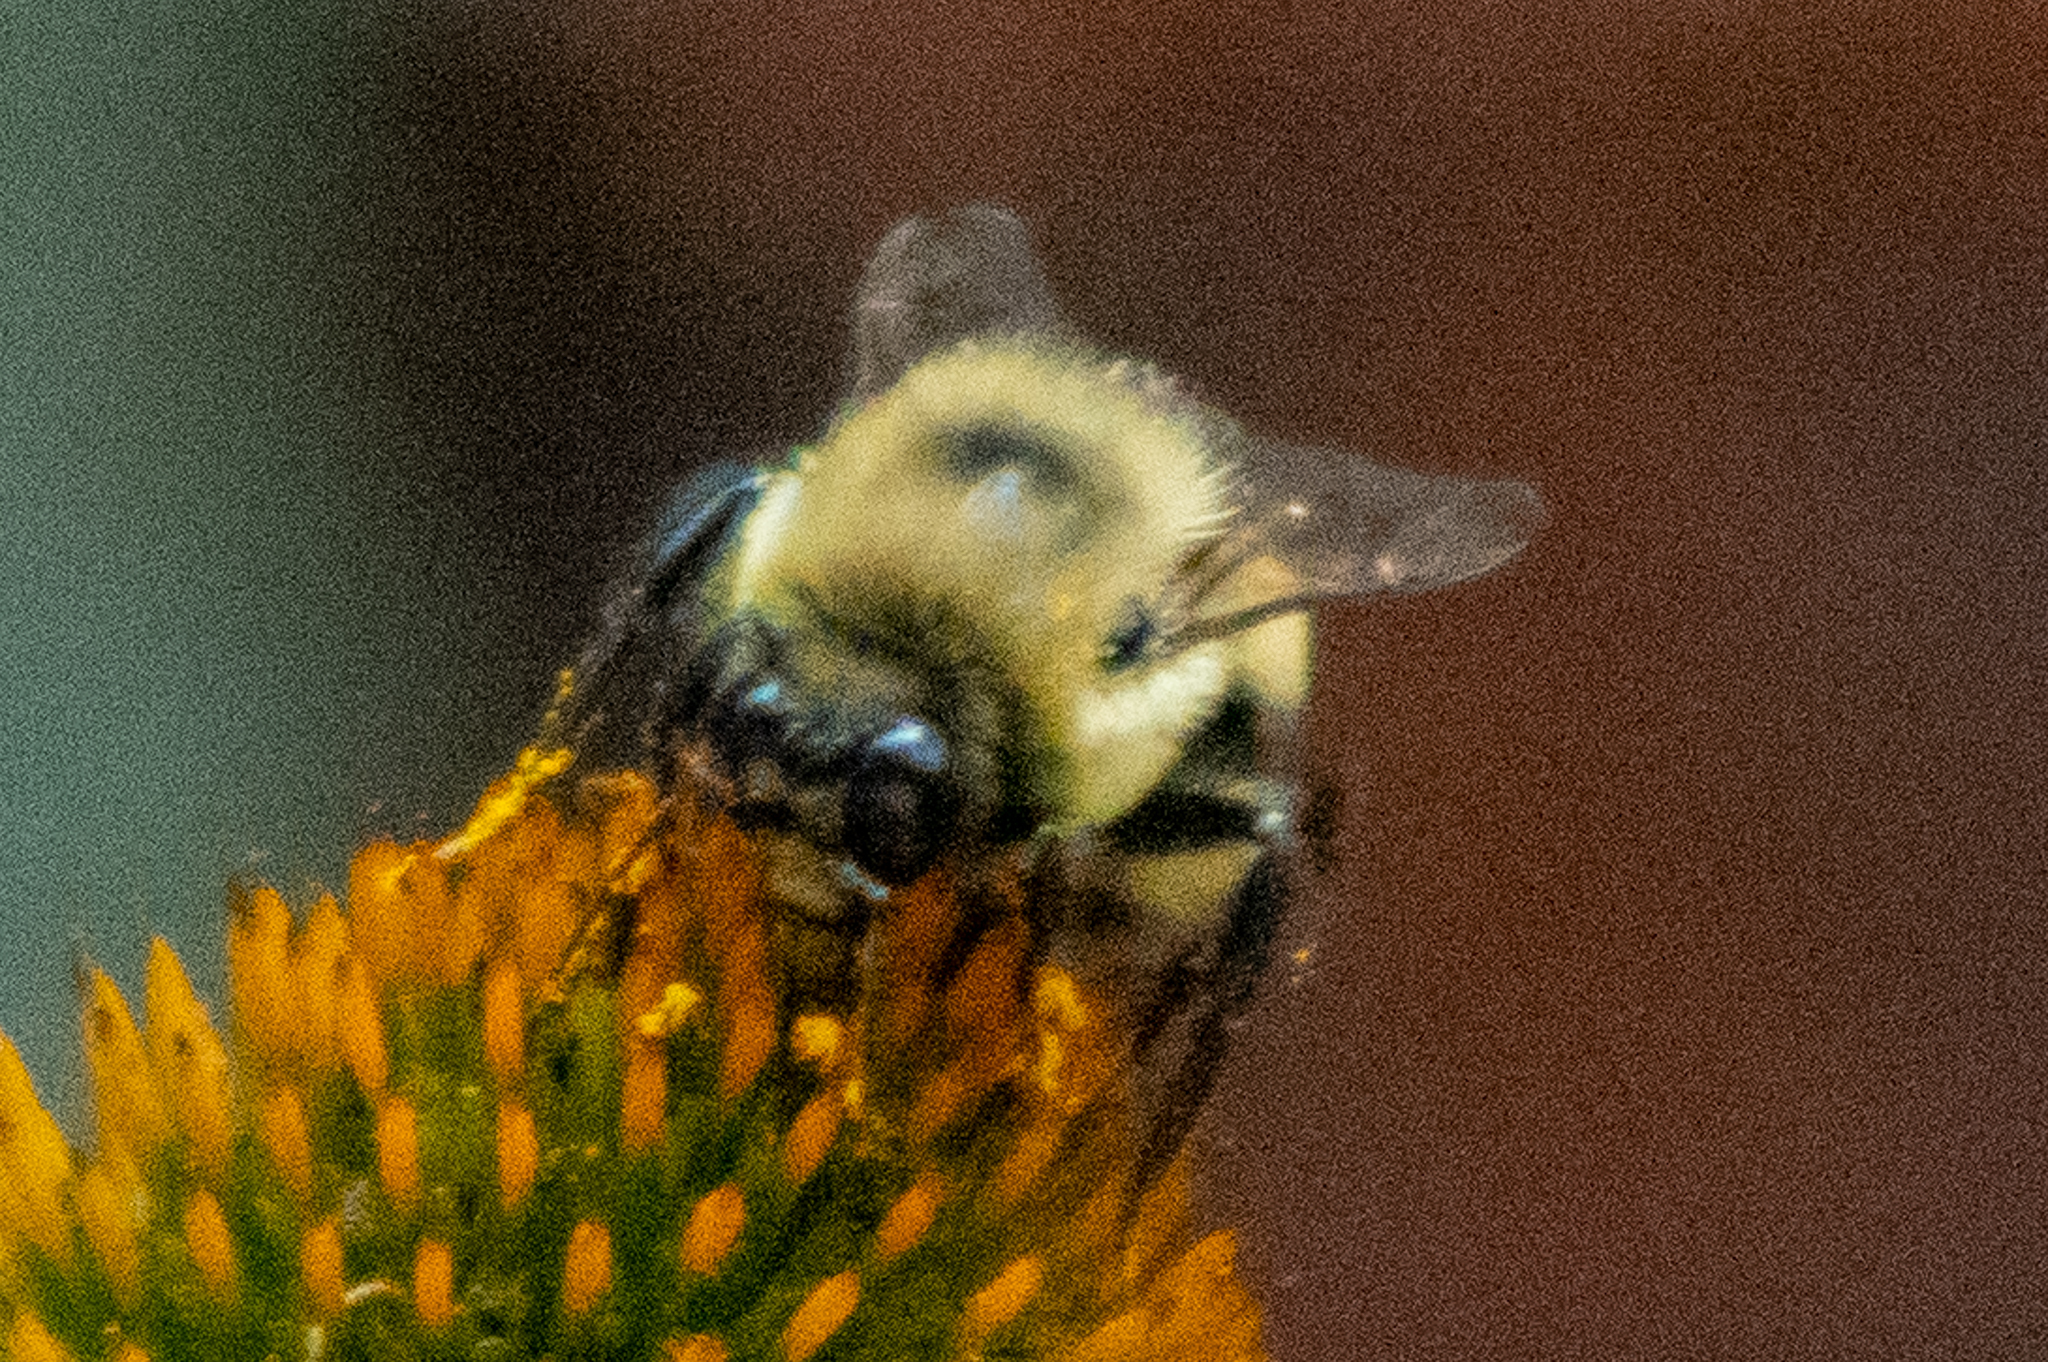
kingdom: Animalia
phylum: Arthropoda
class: Insecta
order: Hymenoptera
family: Apidae
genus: Bombus
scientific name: Bombus griseocollis
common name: Brown-belted bumble bee
